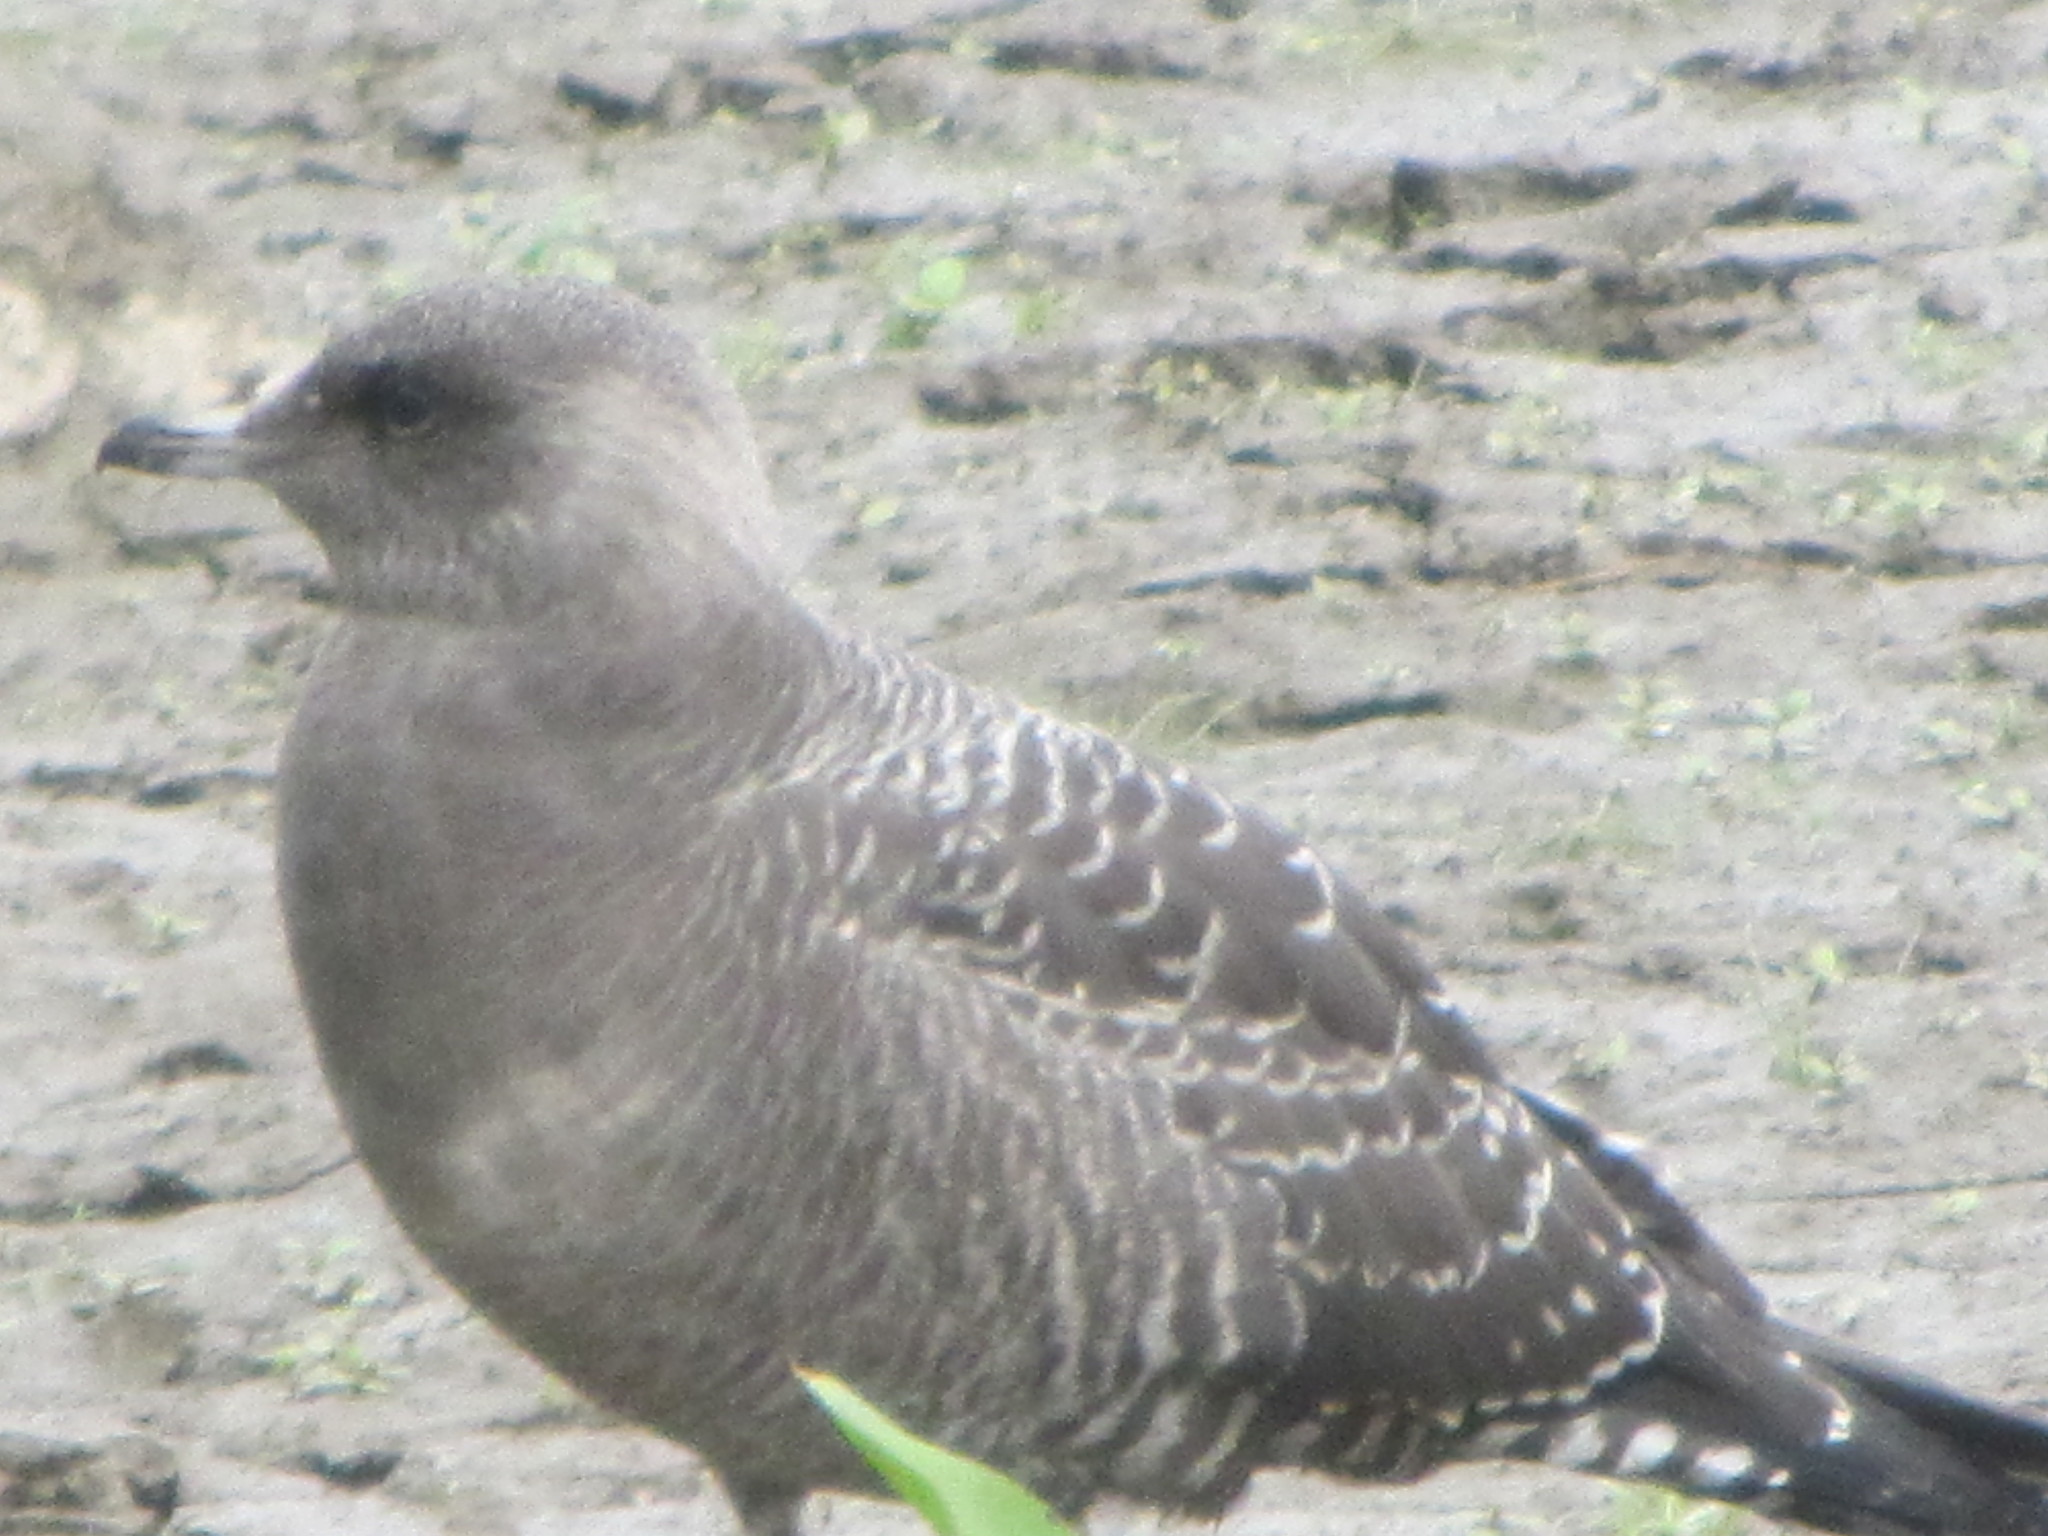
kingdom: Animalia
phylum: Chordata
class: Aves
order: Charadriiformes
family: Stercorariidae
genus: Stercorarius
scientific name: Stercorarius longicaudus
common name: Long-tailed jaeger
